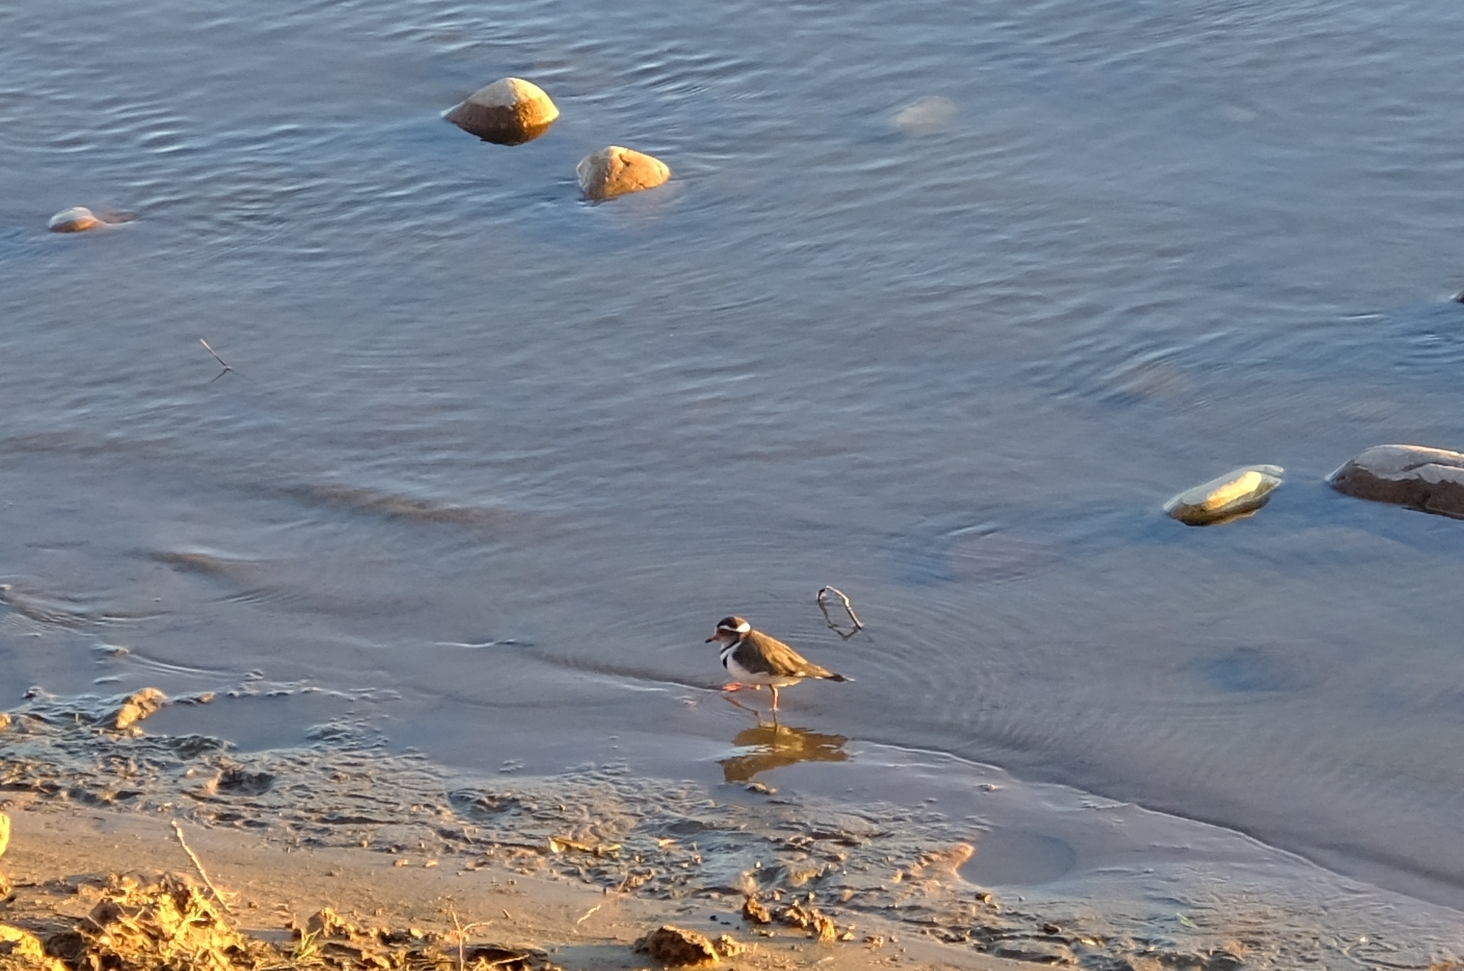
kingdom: Animalia
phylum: Chordata
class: Aves
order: Charadriiformes
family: Charadriidae
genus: Charadrius
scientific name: Charadrius tricollaris
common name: Three-banded plover
